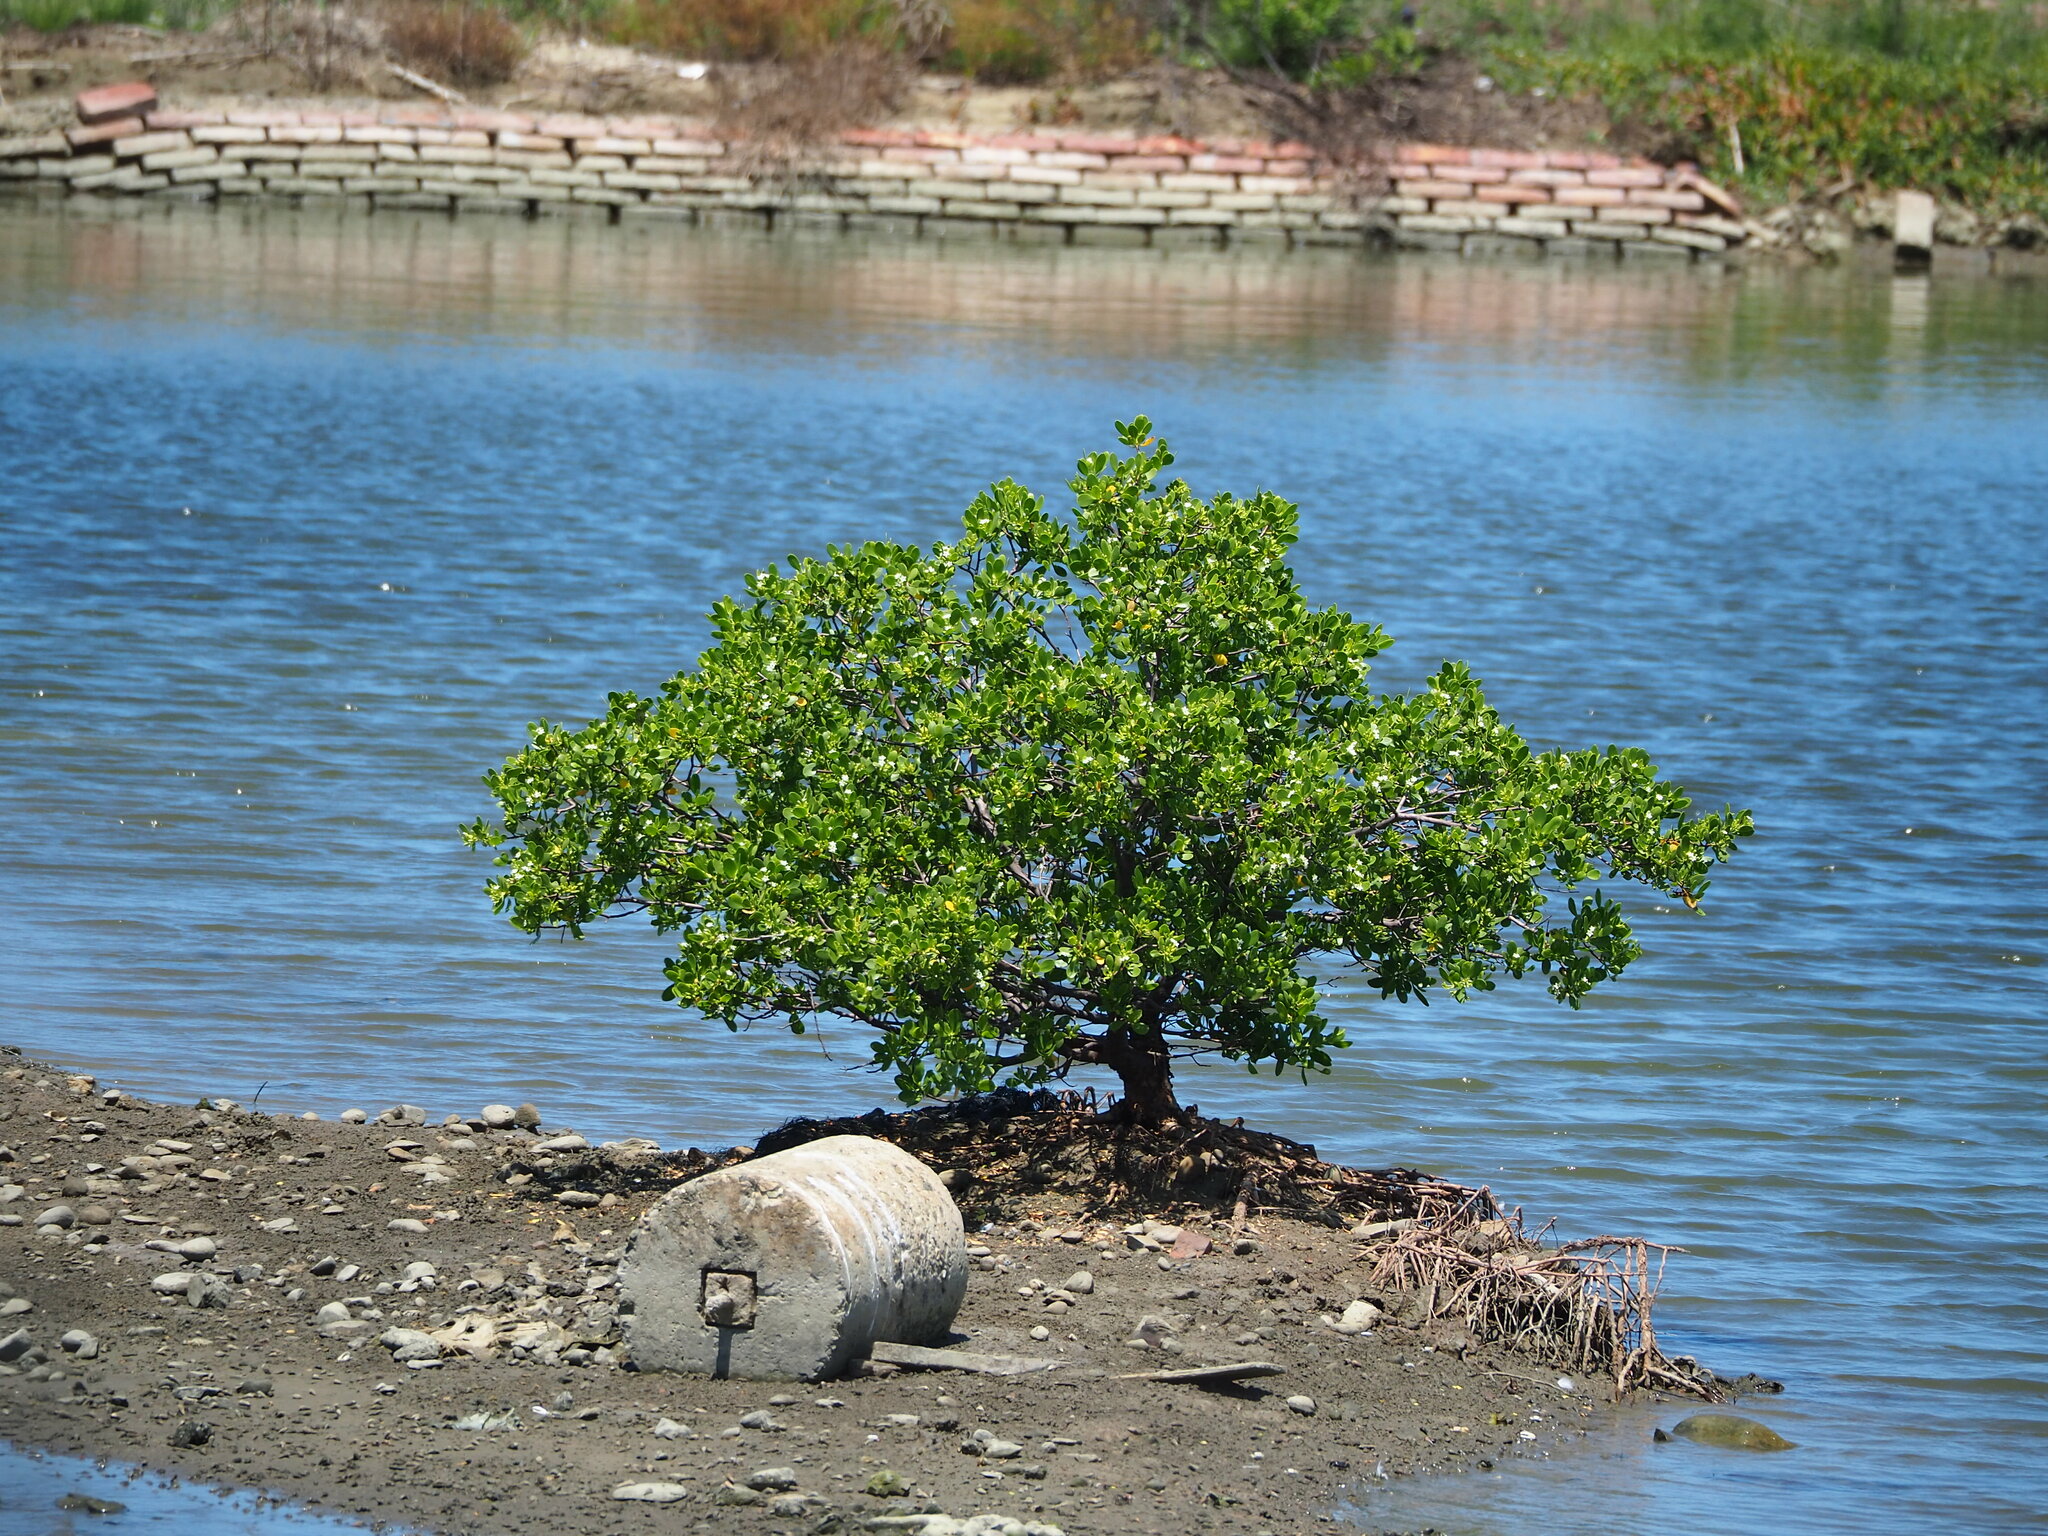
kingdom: Plantae
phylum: Tracheophyta
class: Magnoliopsida
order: Myrtales
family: Combretaceae
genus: Lumnitzera
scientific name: Lumnitzera racemosa
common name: White-flowered black mangrove
